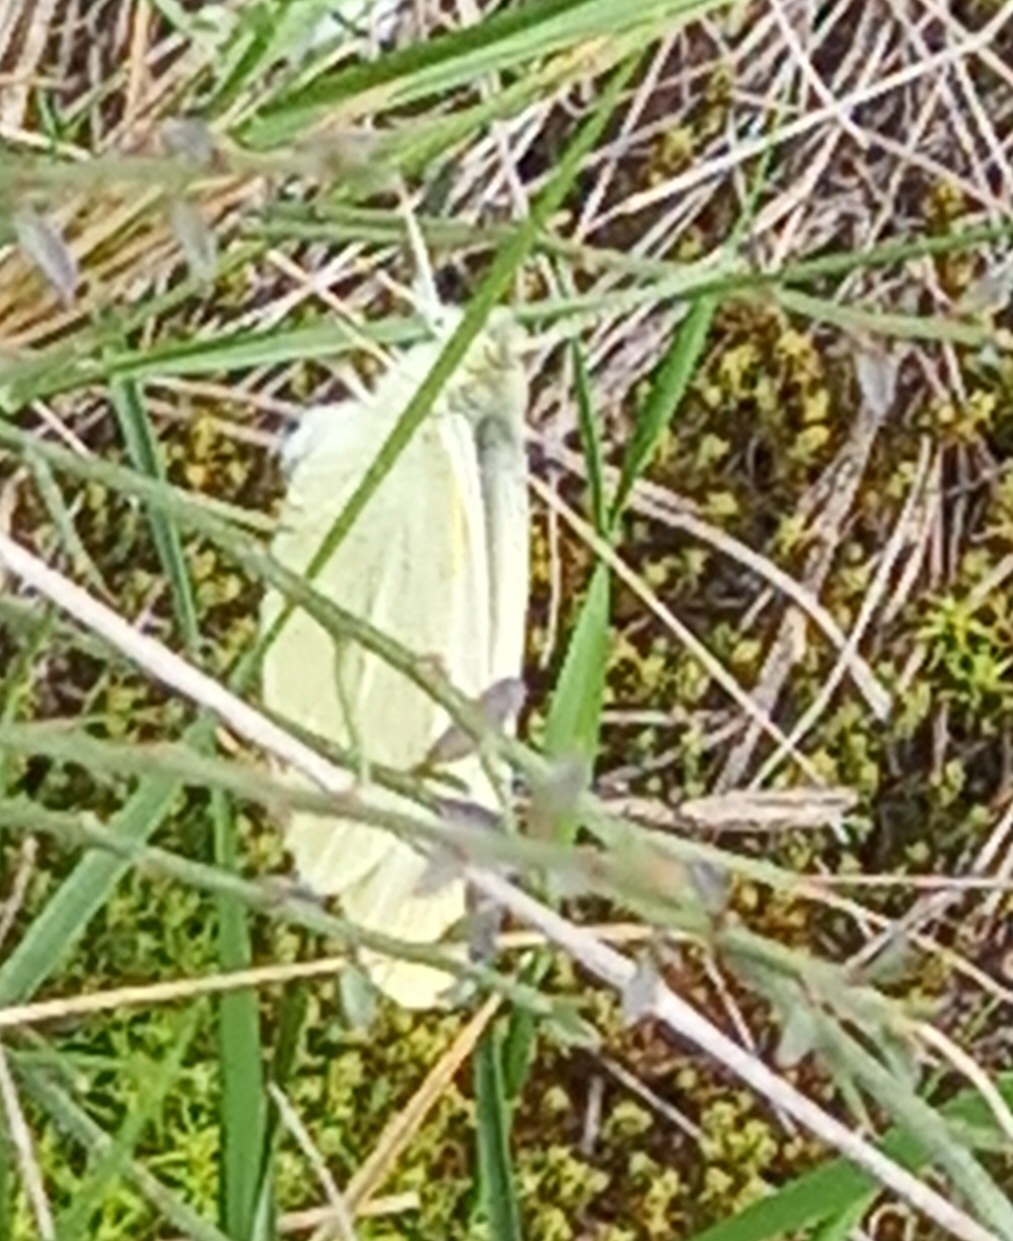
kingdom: Animalia
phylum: Arthropoda
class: Insecta
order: Lepidoptera
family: Pieridae
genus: Pieris
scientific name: Pieris rapae
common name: Small white
